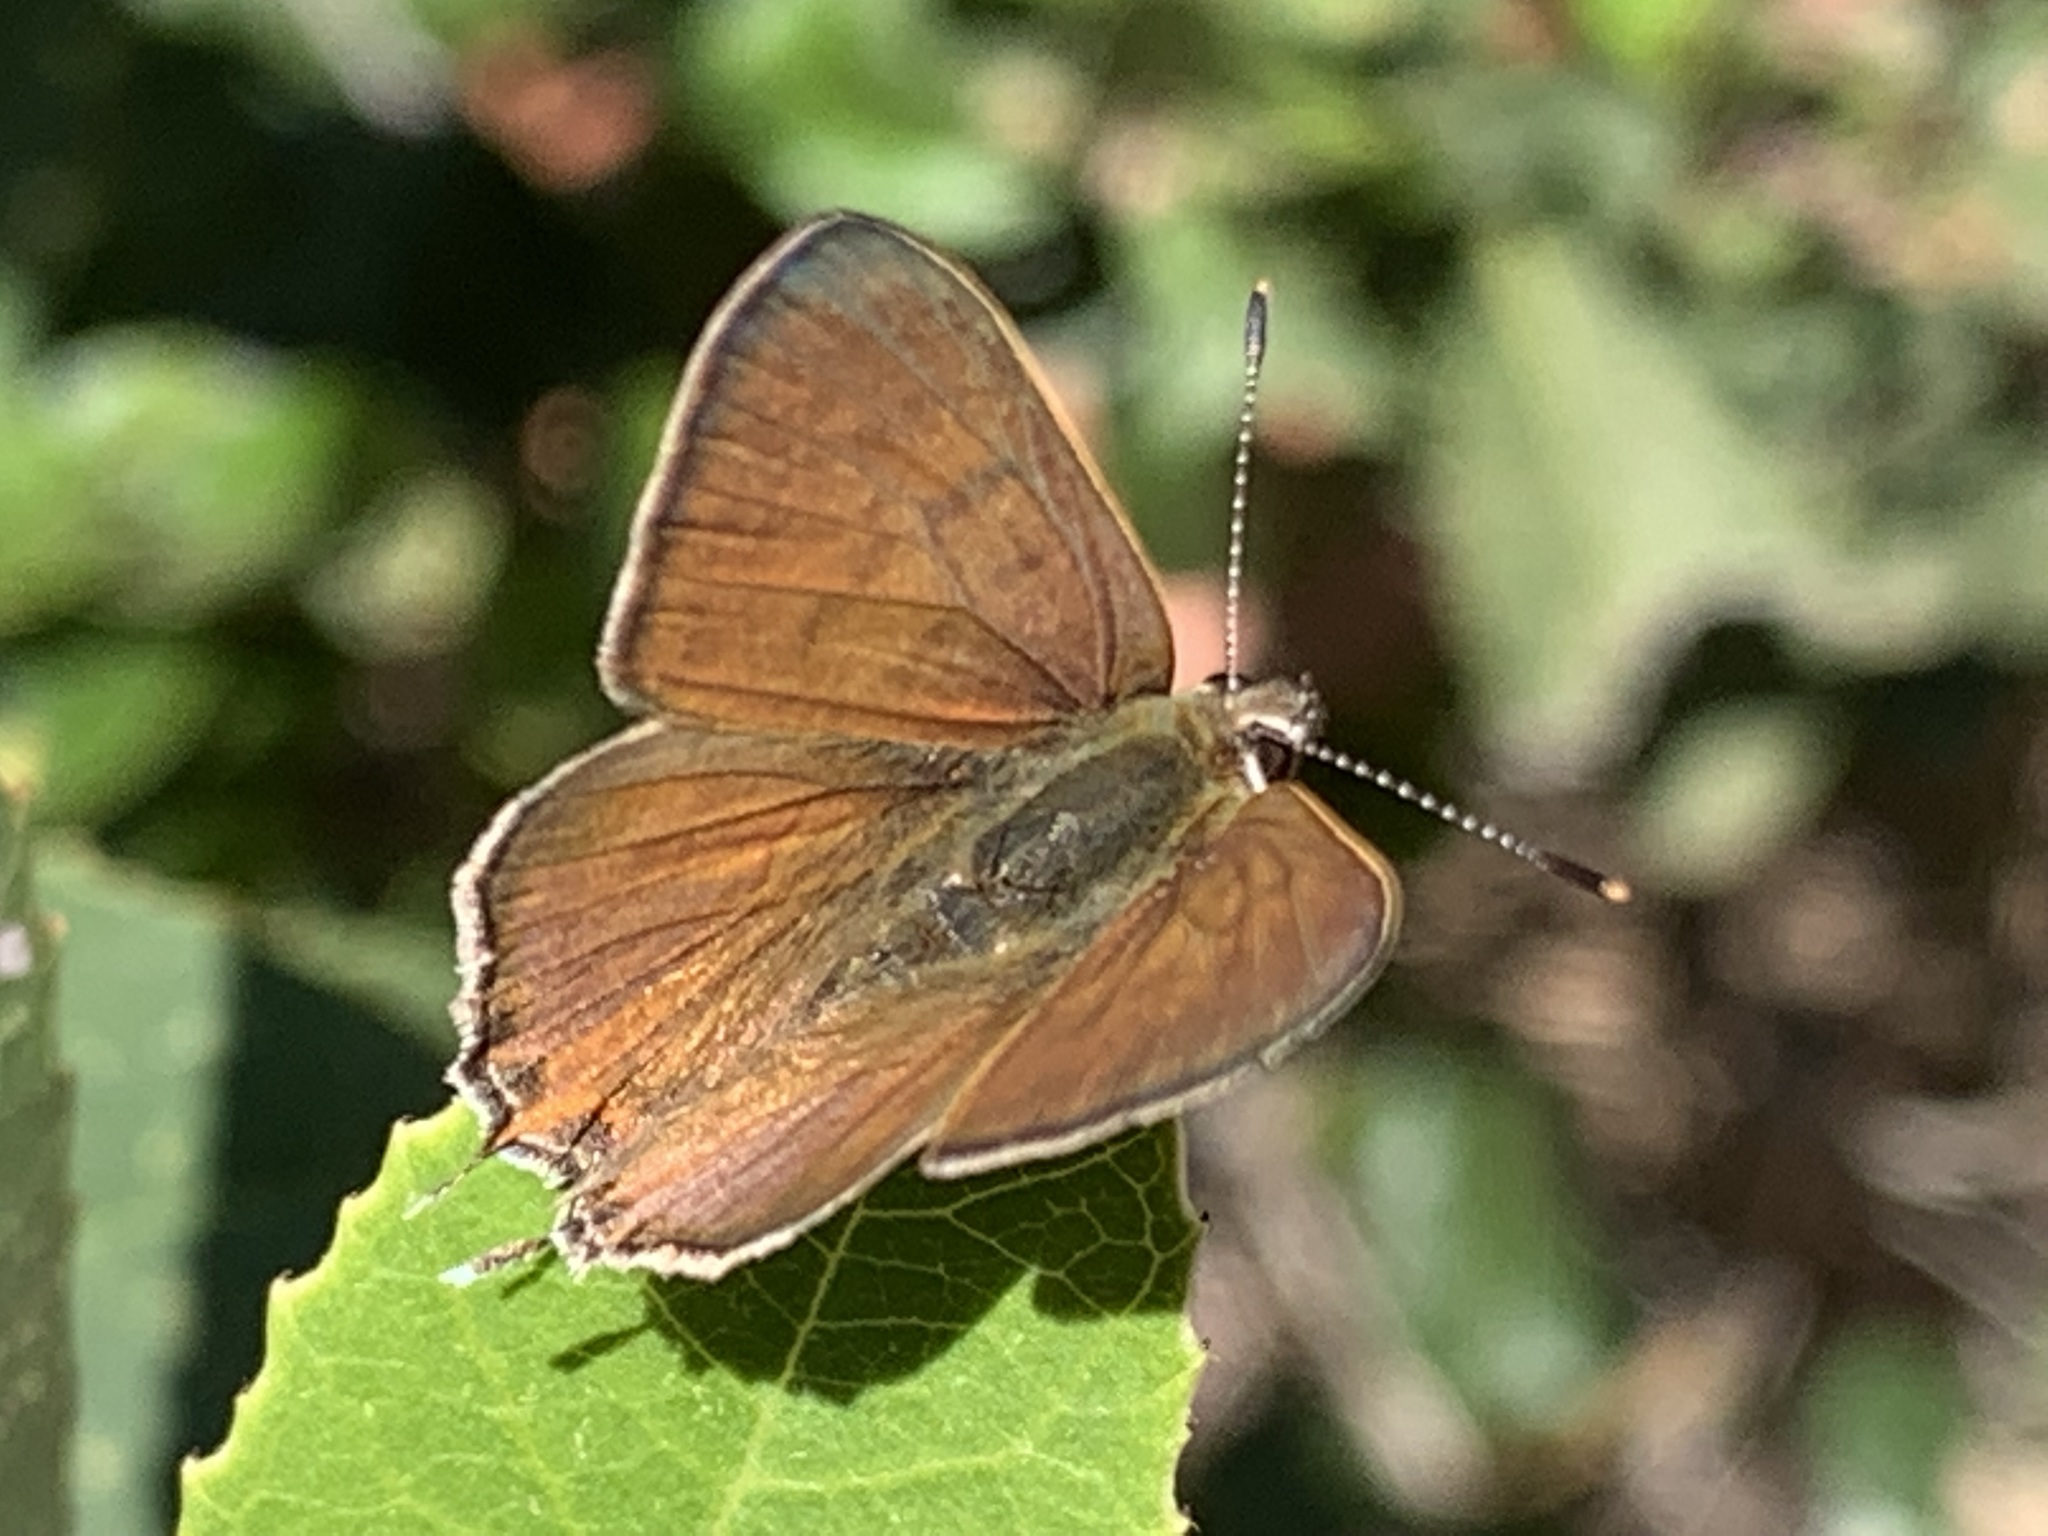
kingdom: Animalia
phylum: Arthropoda
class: Insecta
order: Lepidoptera
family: Lycaenidae
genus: Tharsalea
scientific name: Tharsalea arota
